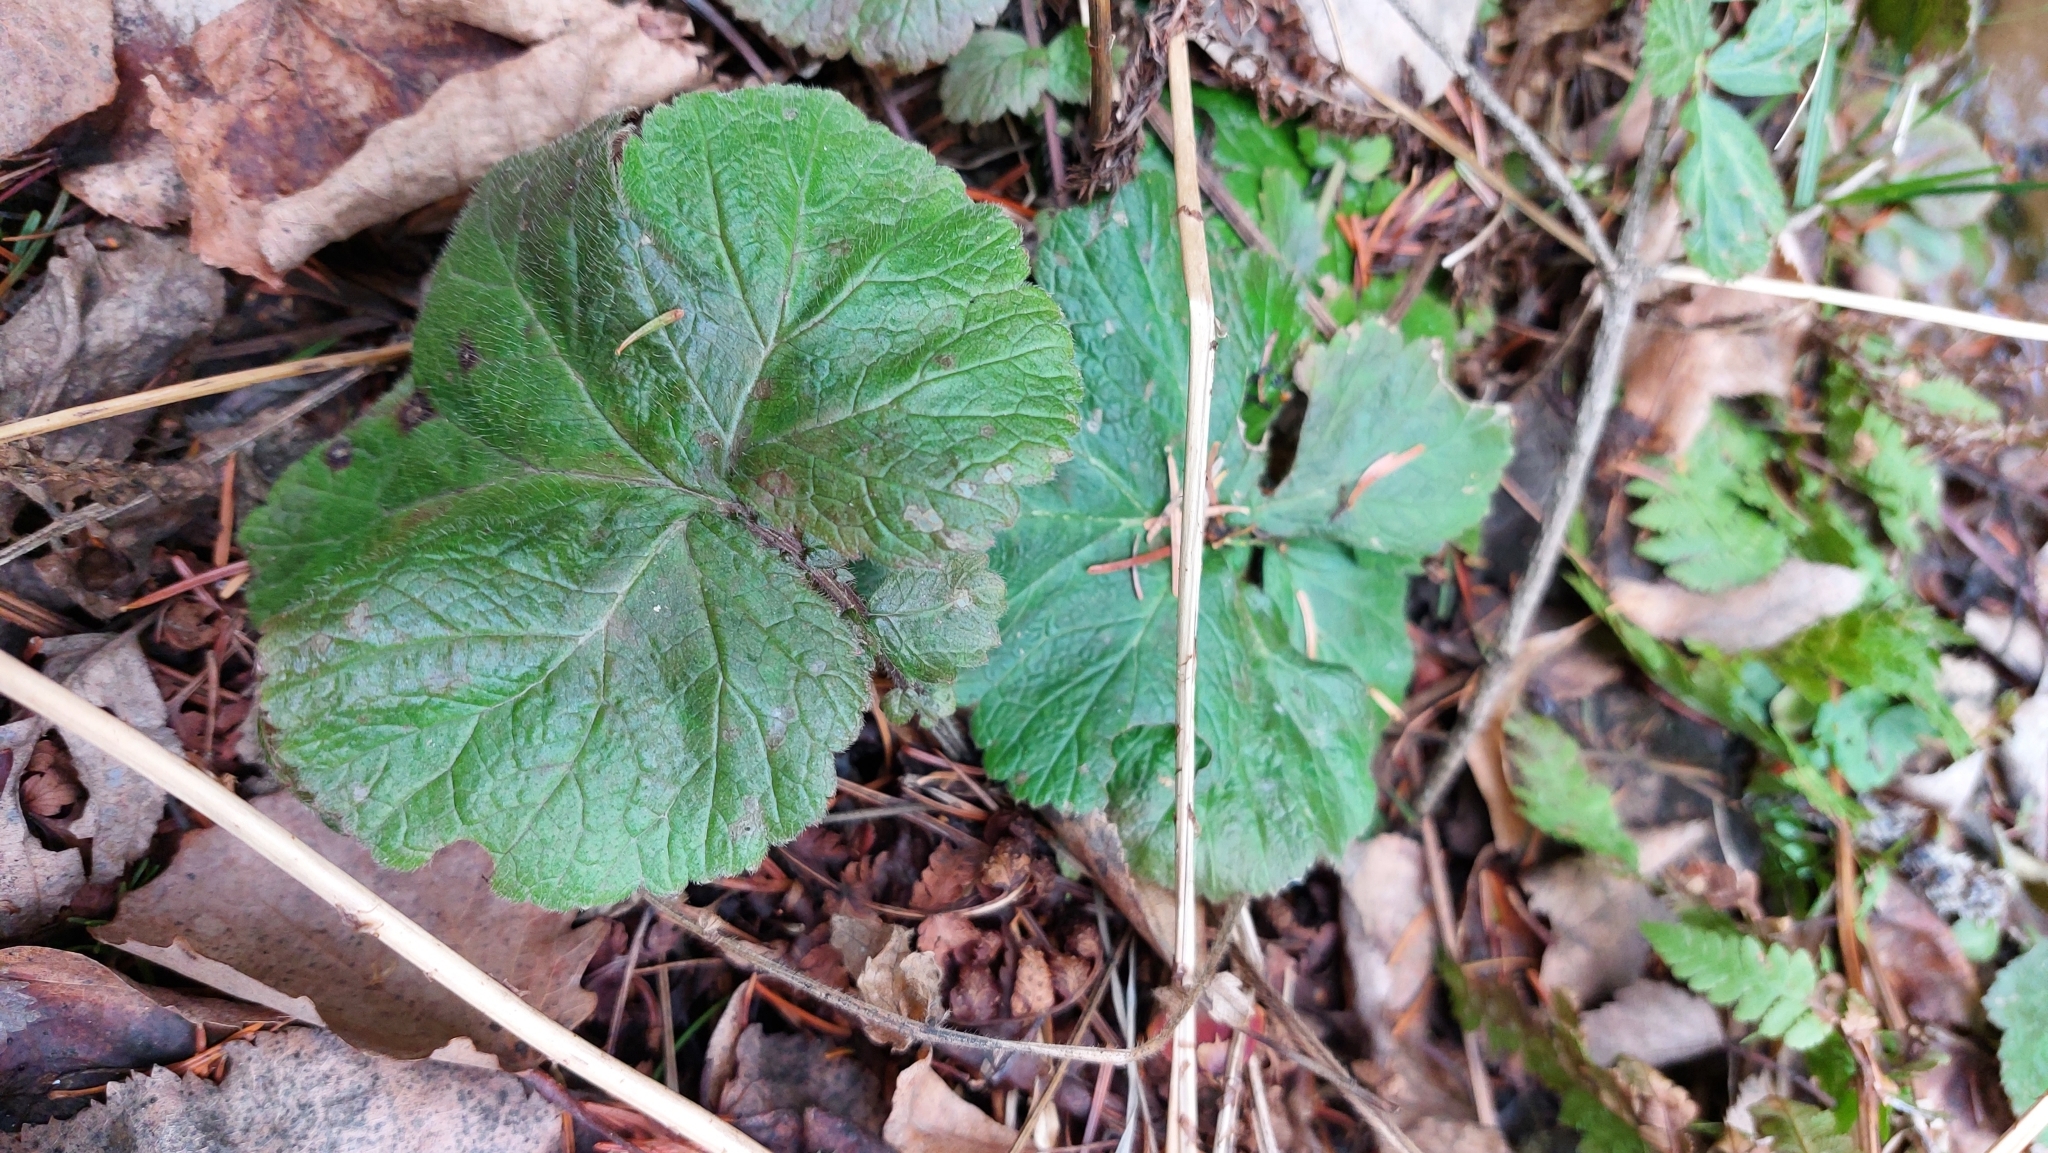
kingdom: Plantae
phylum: Tracheophyta
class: Magnoliopsida
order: Rosales
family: Rosaceae
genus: Geum
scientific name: Geum
